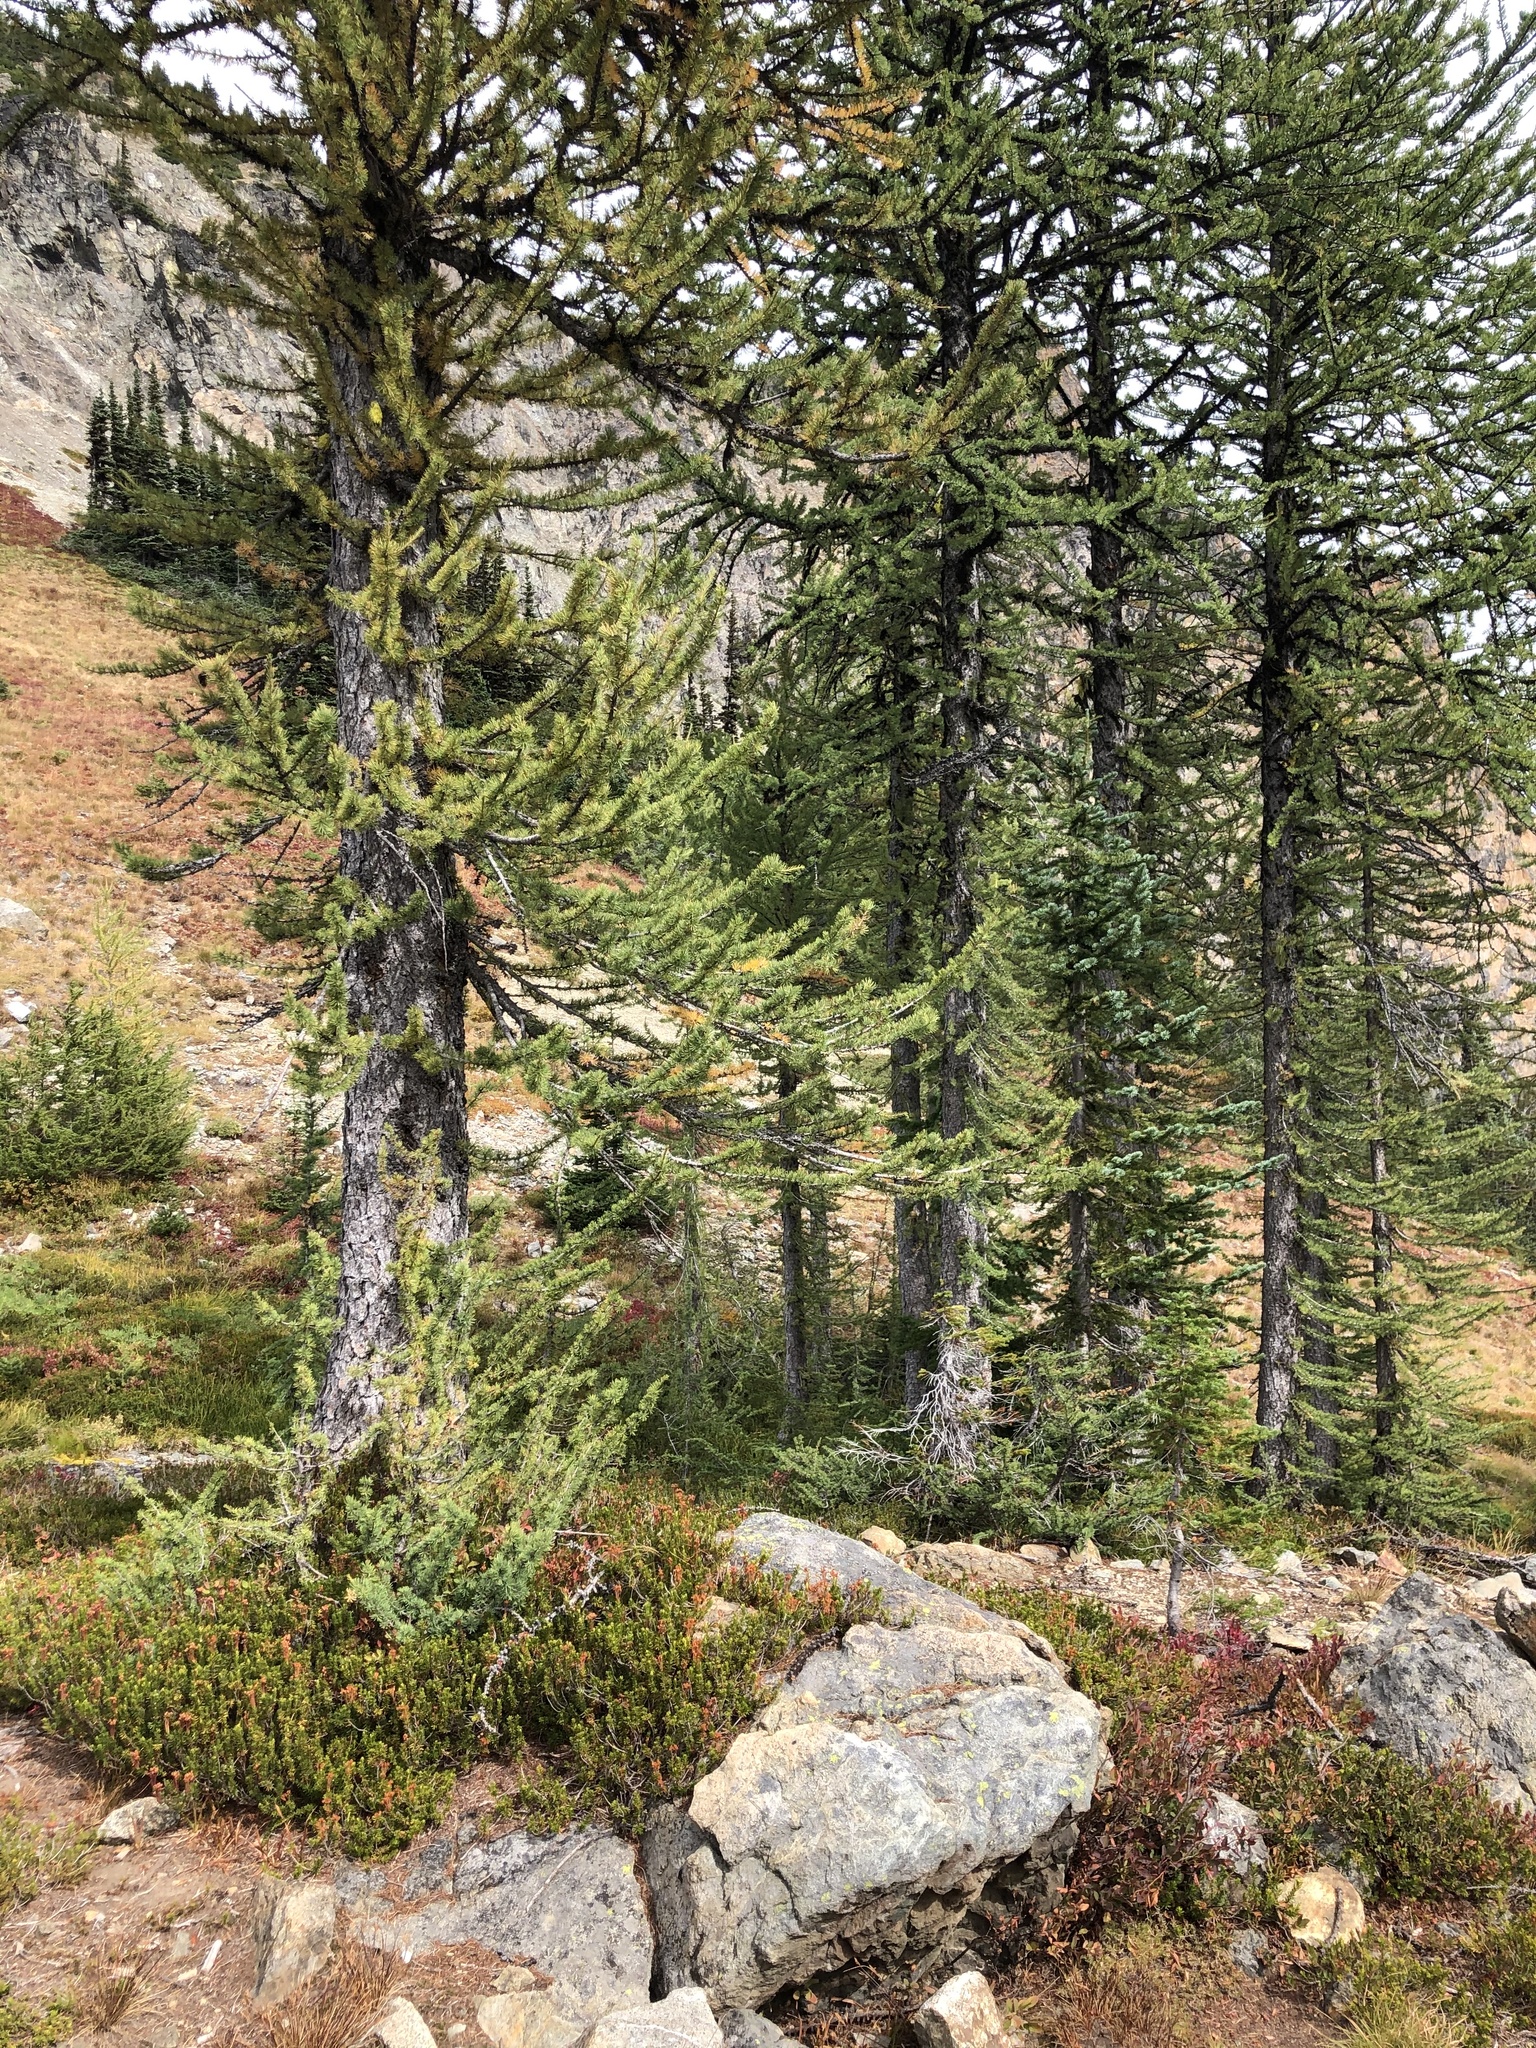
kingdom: Plantae
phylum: Tracheophyta
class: Pinopsida
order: Pinales
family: Pinaceae
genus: Larix
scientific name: Larix lyallii
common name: Alpine larch
